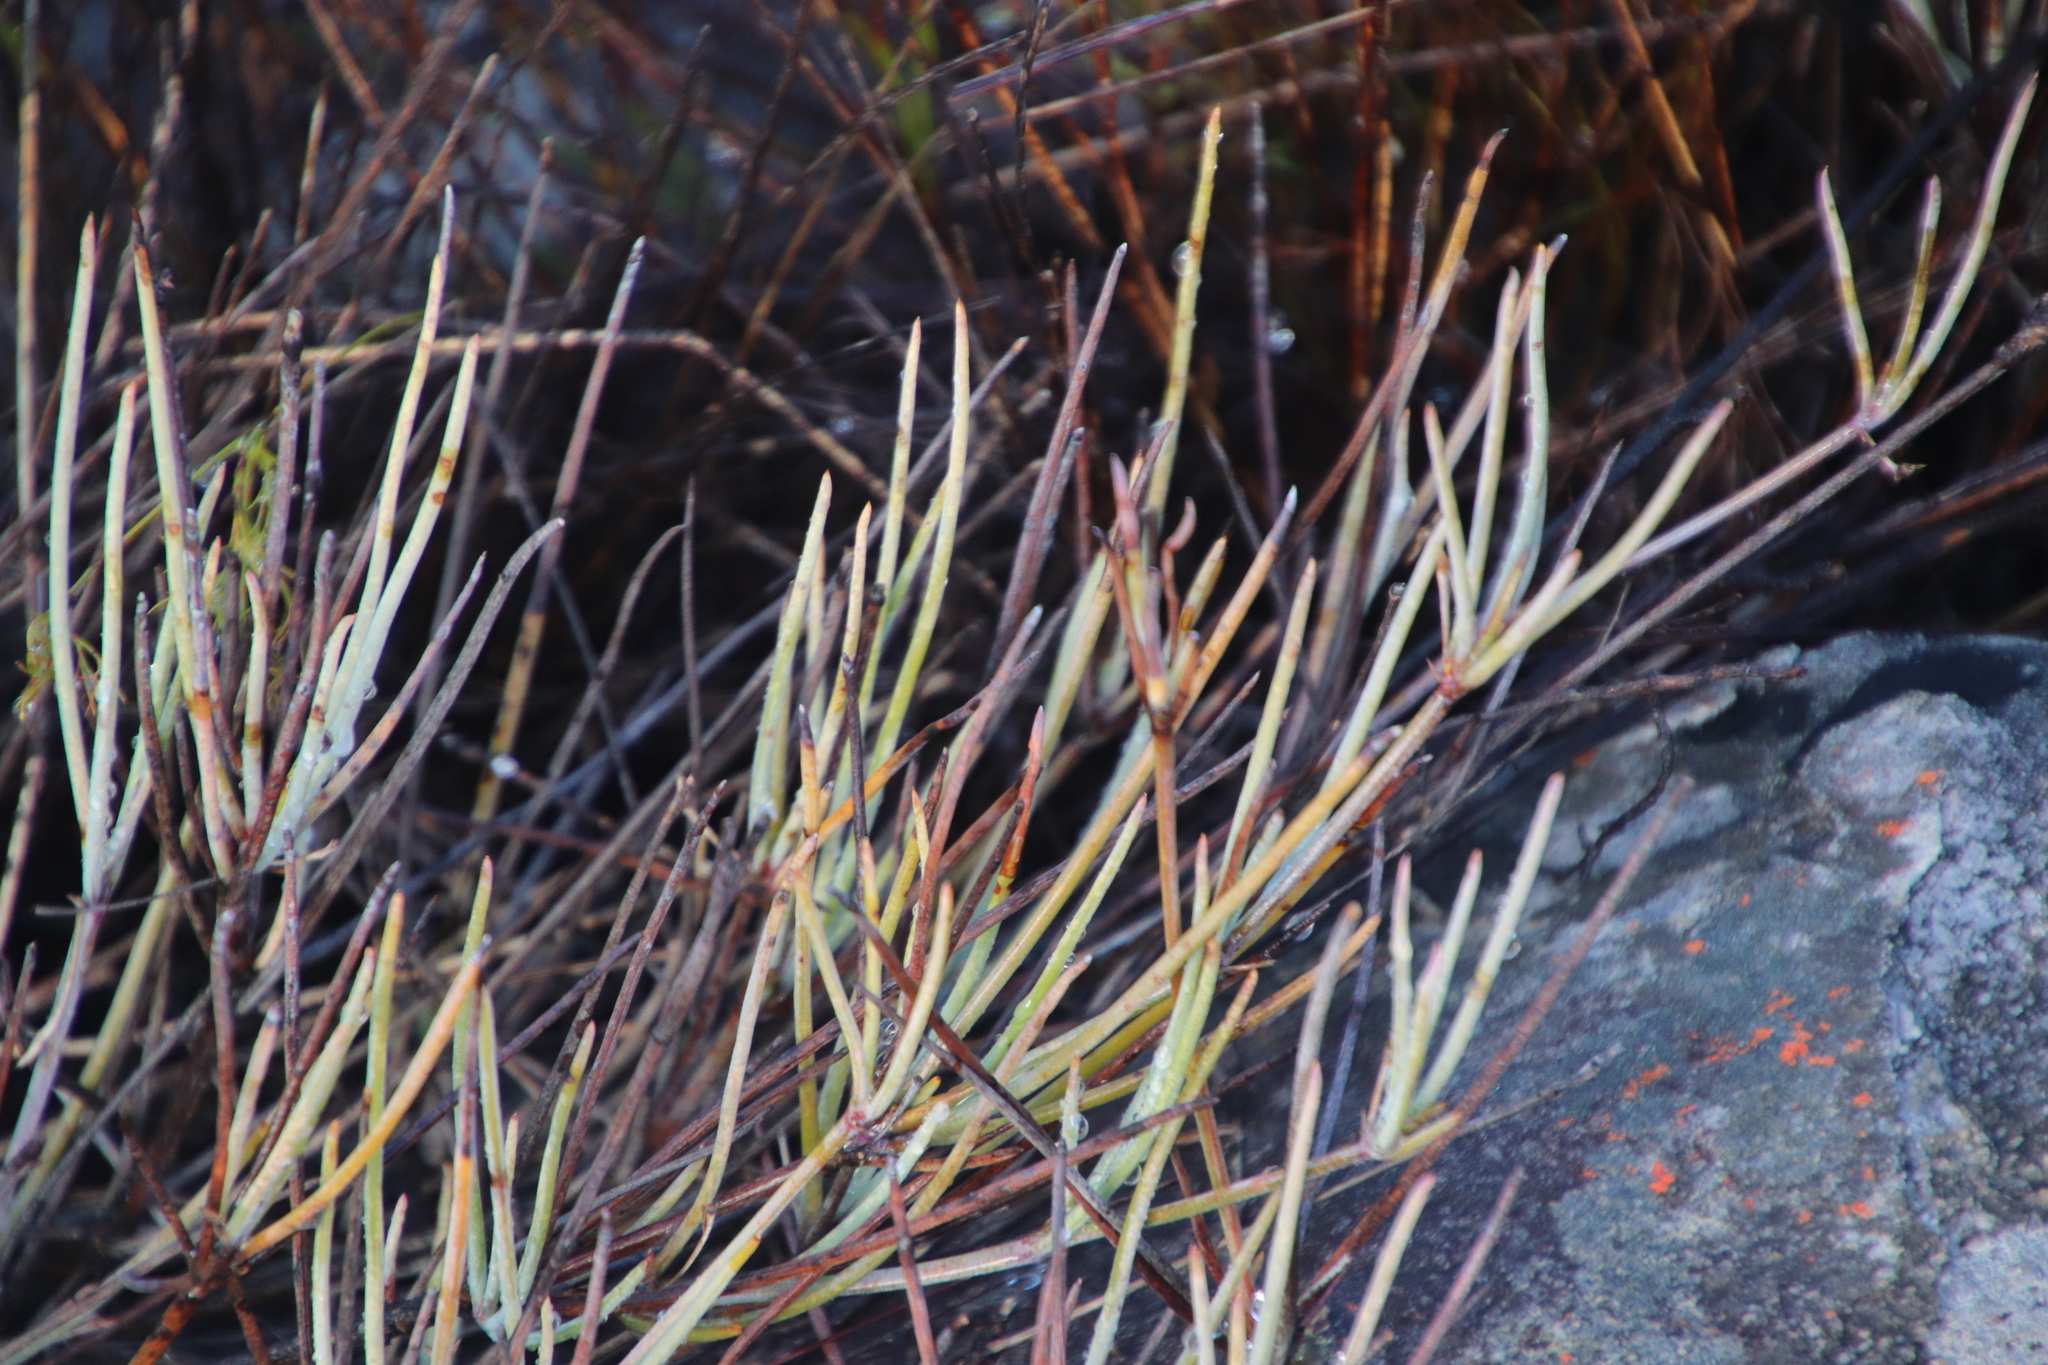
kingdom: Plantae
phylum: Tracheophyta
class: Magnoliopsida
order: Apiales
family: Apiaceae
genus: Centella
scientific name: Centella glauca
